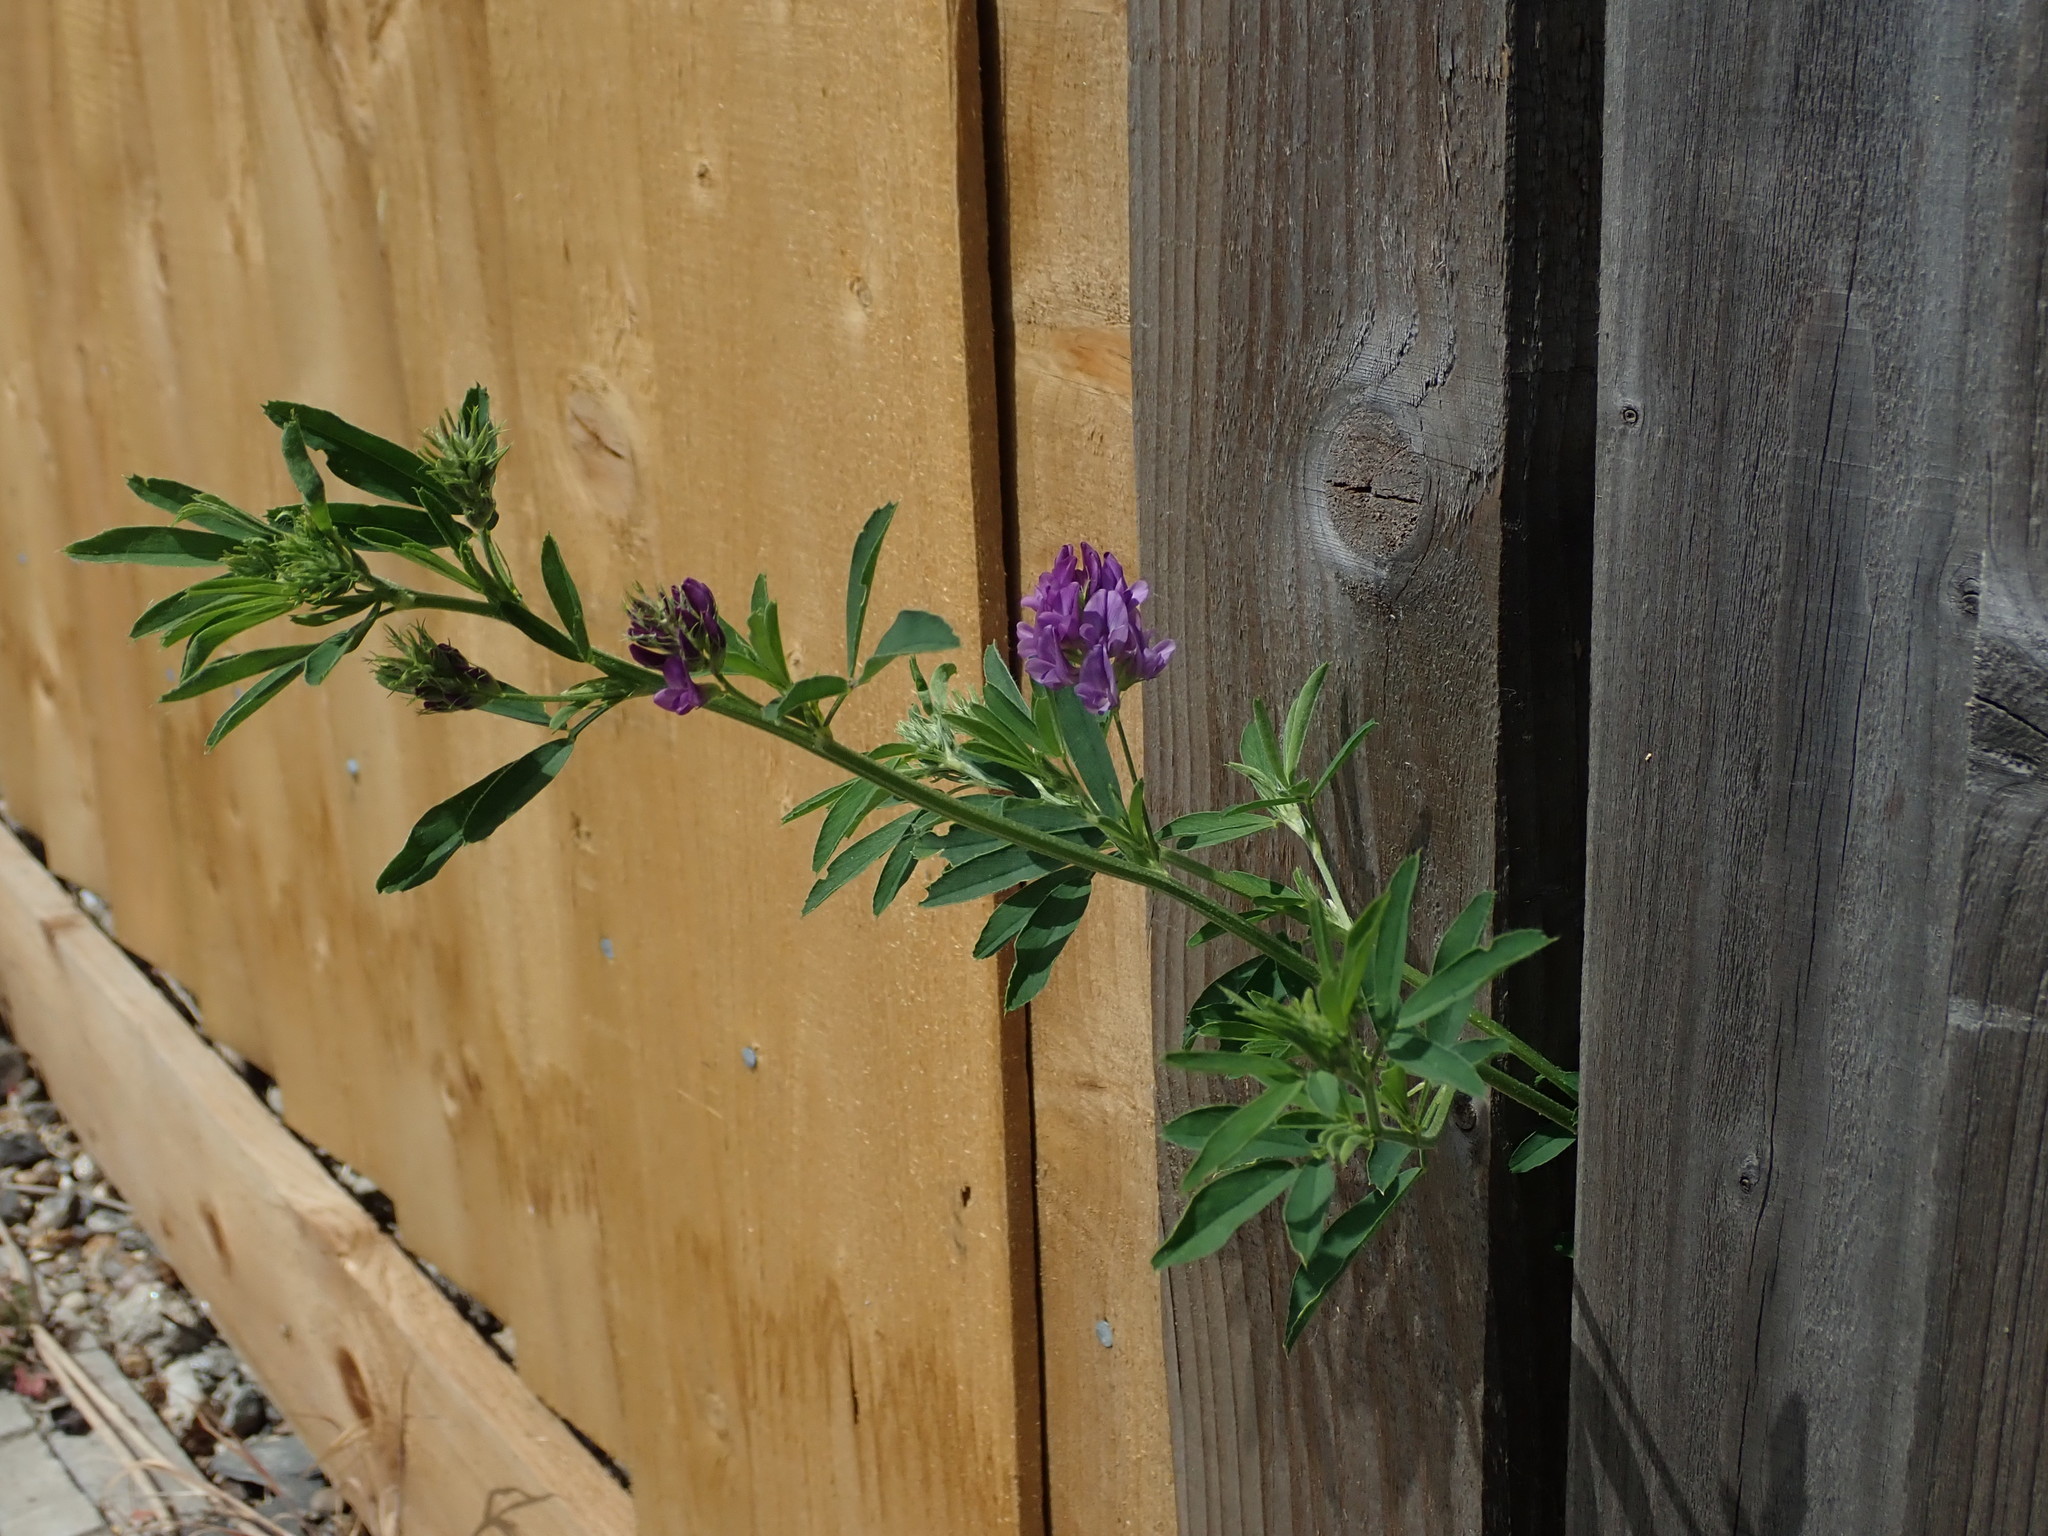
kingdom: Plantae
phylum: Tracheophyta
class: Magnoliopsida
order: Fabales
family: Fabaceae
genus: Medicago
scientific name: Medicago sativa
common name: Alfalfa
